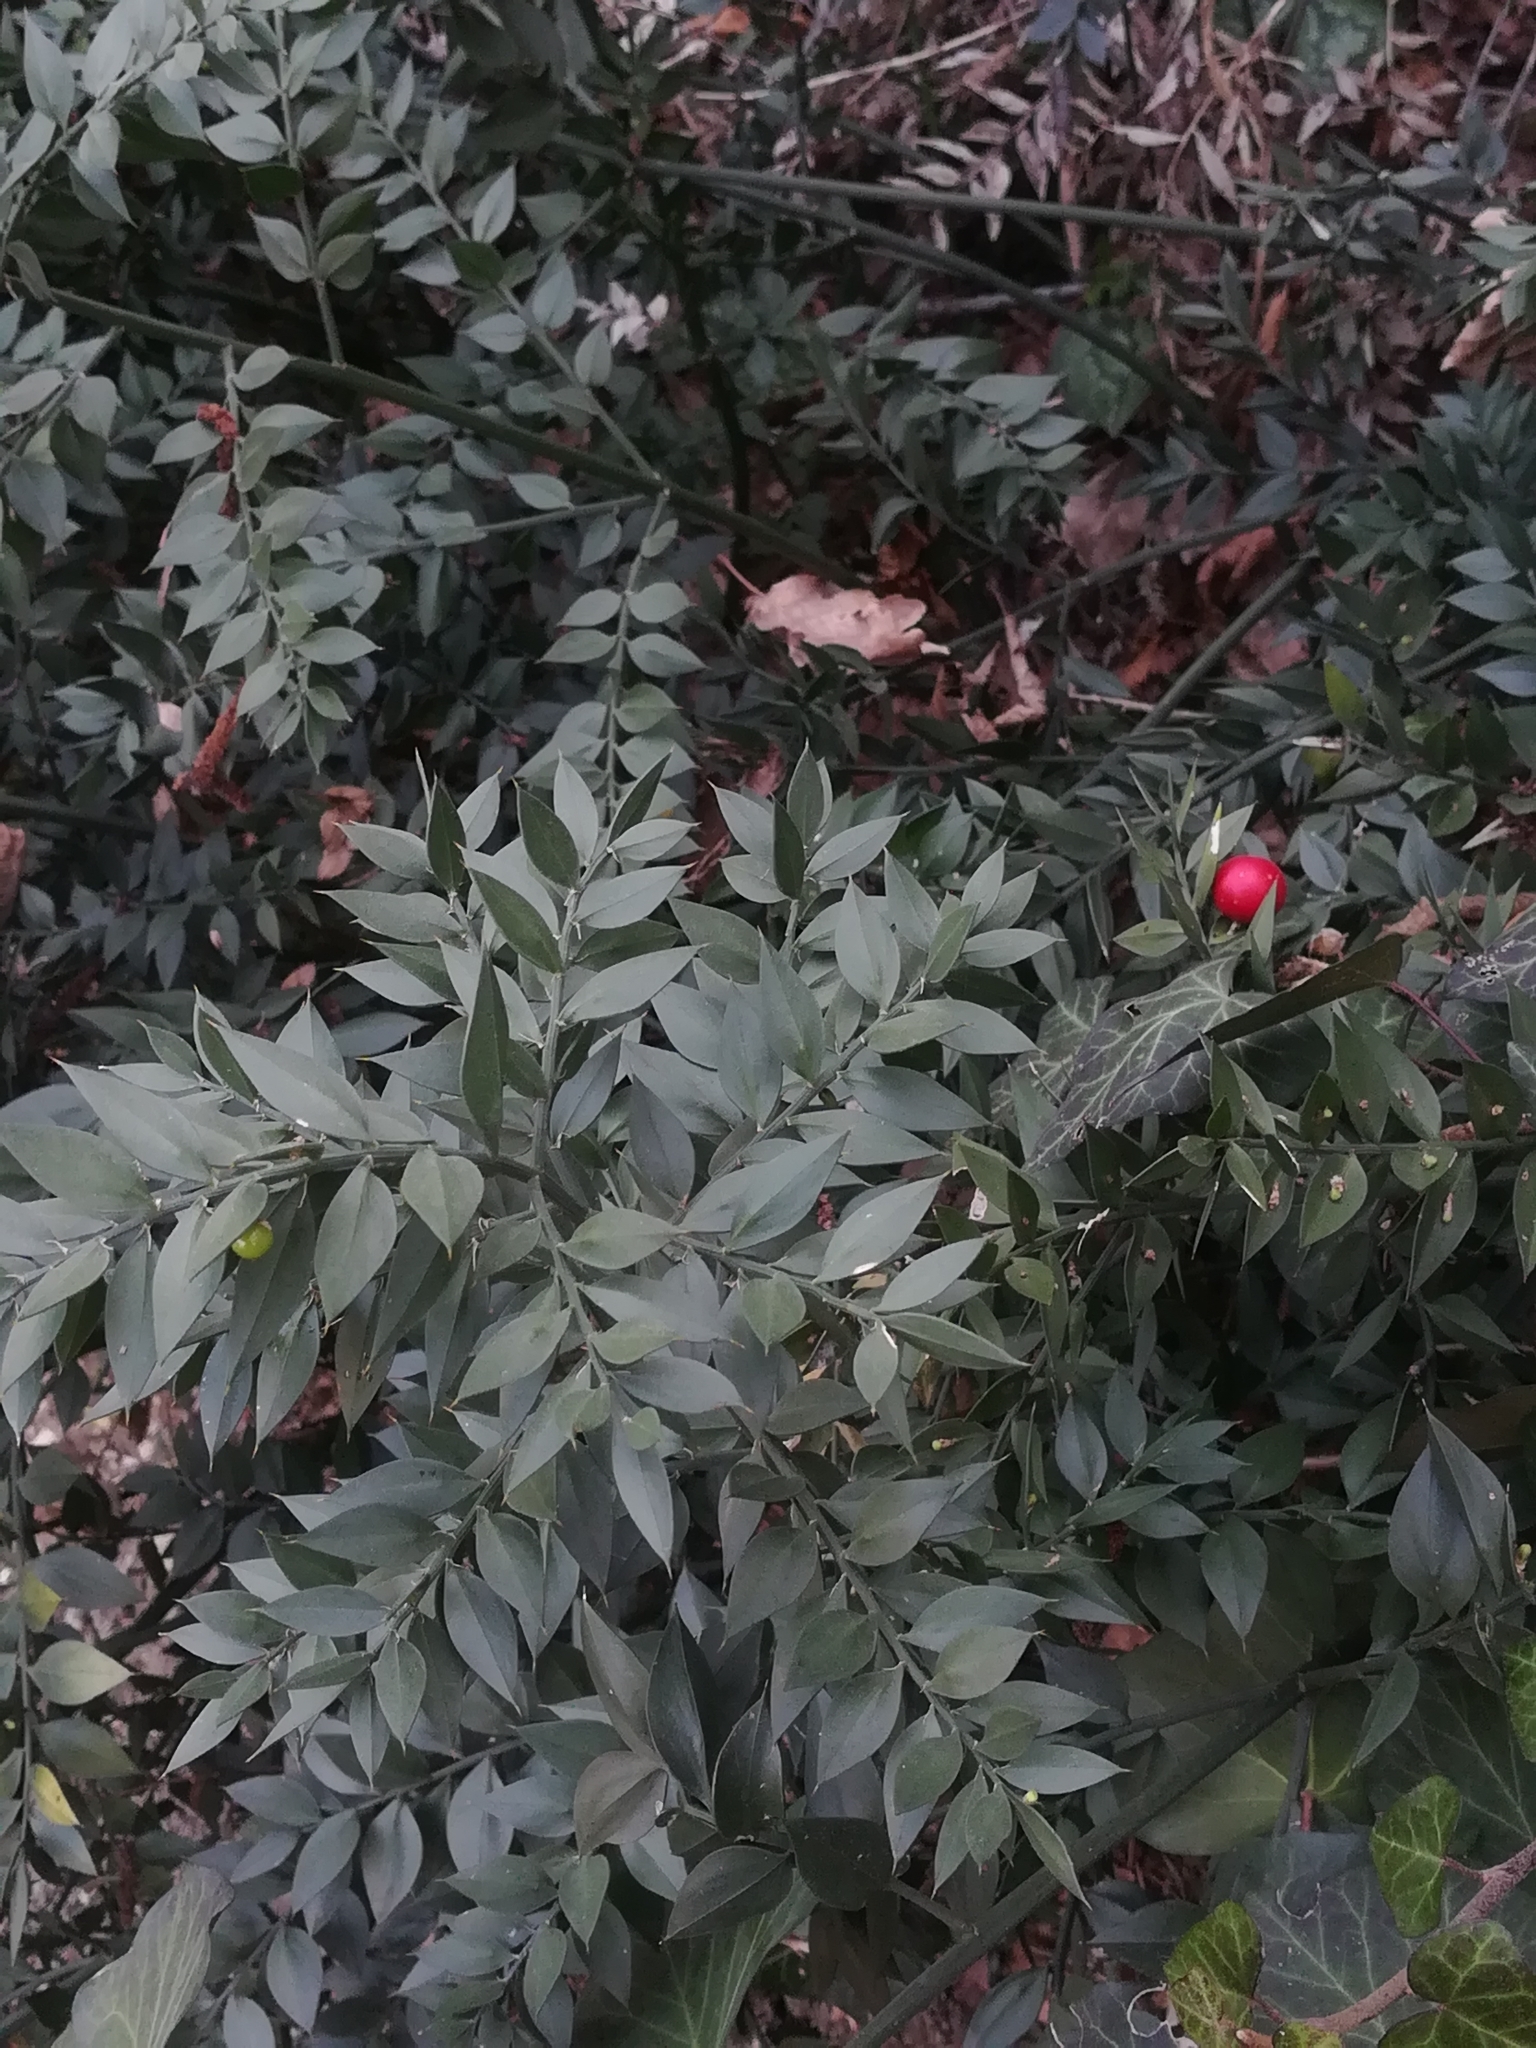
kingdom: Plantae
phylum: Tracheophyta
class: Liliopsida
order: Asparagales
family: Asparagaceae
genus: Ruscus
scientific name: Ruscus aculeatus
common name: Butcher's-broom
